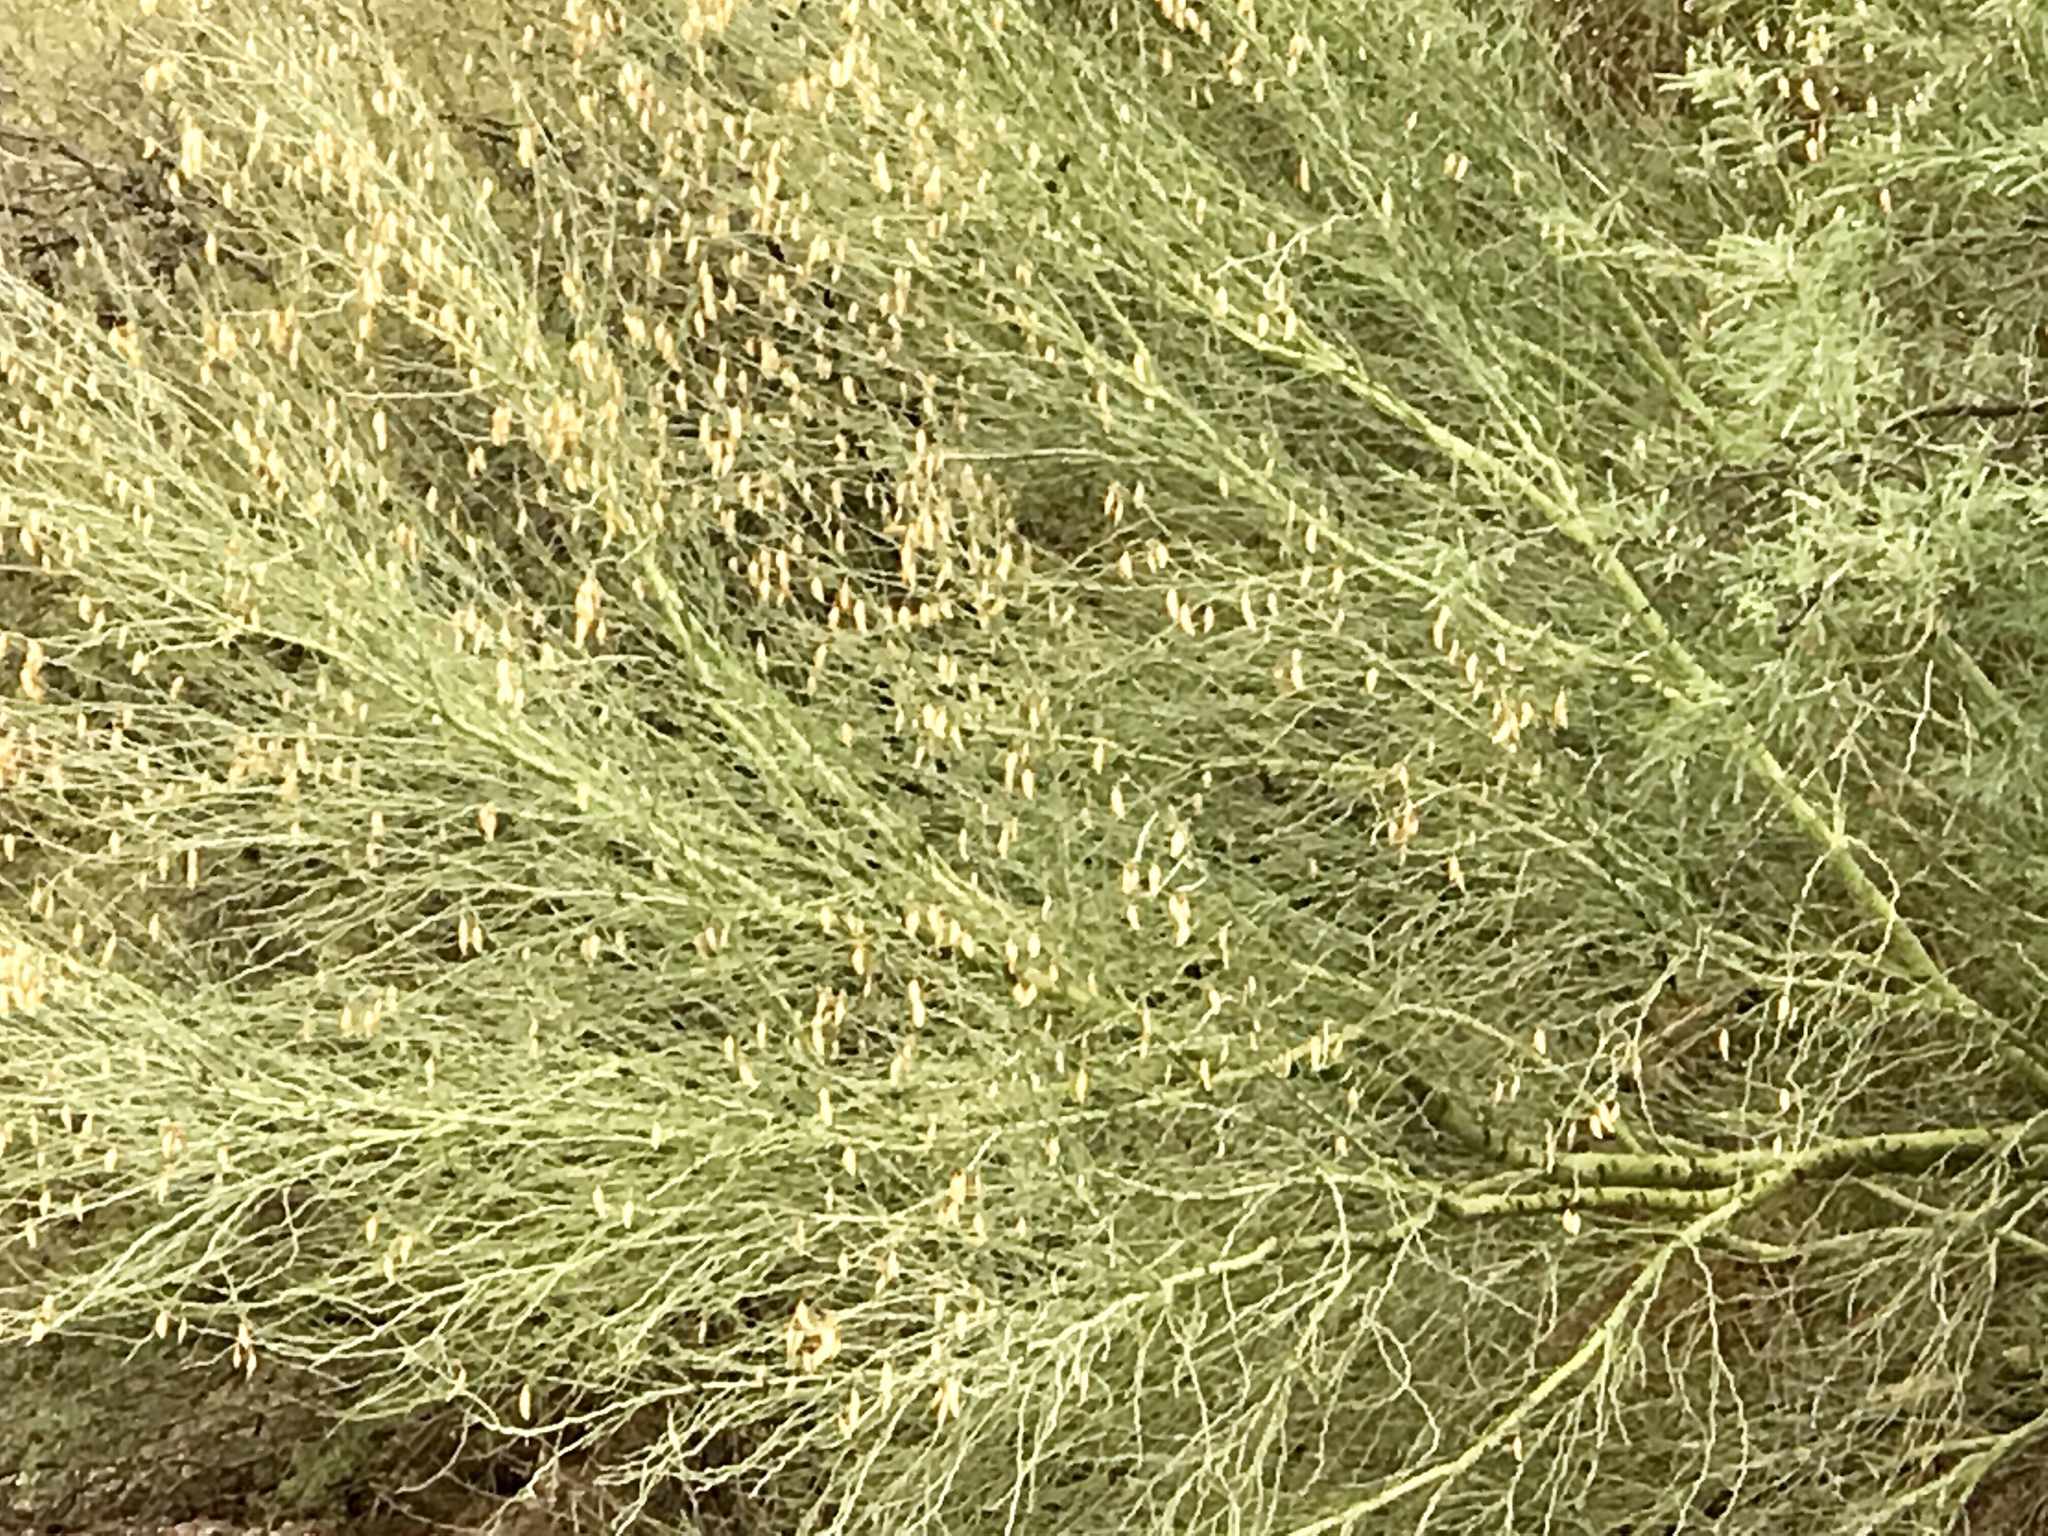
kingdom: Plantae
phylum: Tracheophyta
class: Magnoliopsida
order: Fabales
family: Fabaceae
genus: Parkinsonia
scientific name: Parkinsonia florida
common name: Blue paloverde
